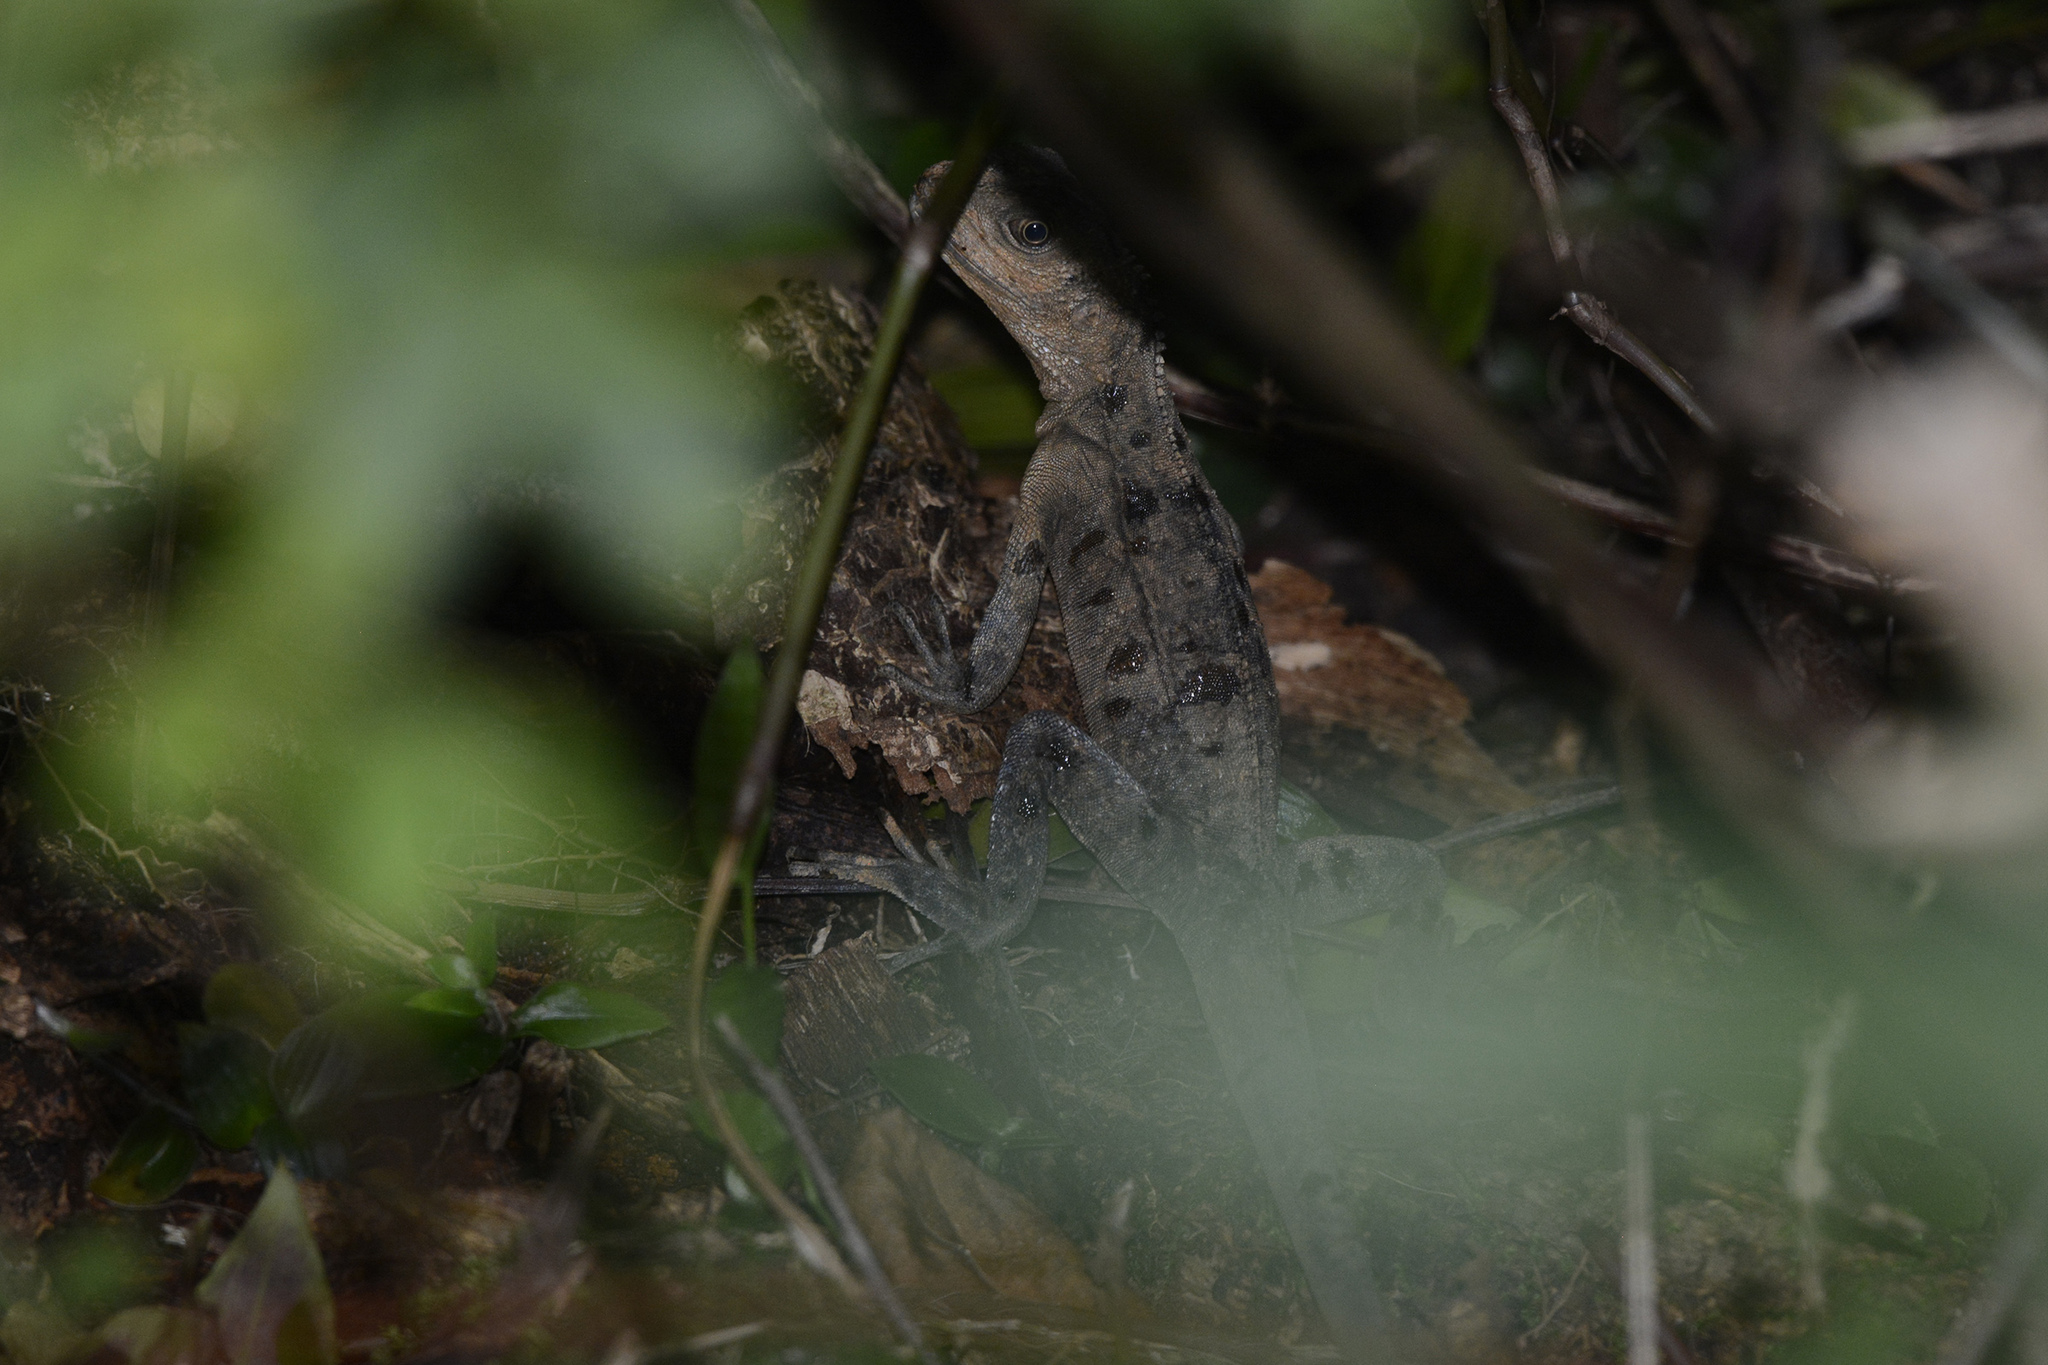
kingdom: Animalia
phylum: Chordata
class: Squamata
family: Agamidae
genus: Intellagama
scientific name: Intellagama lesueurii
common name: Eastern water dragon
